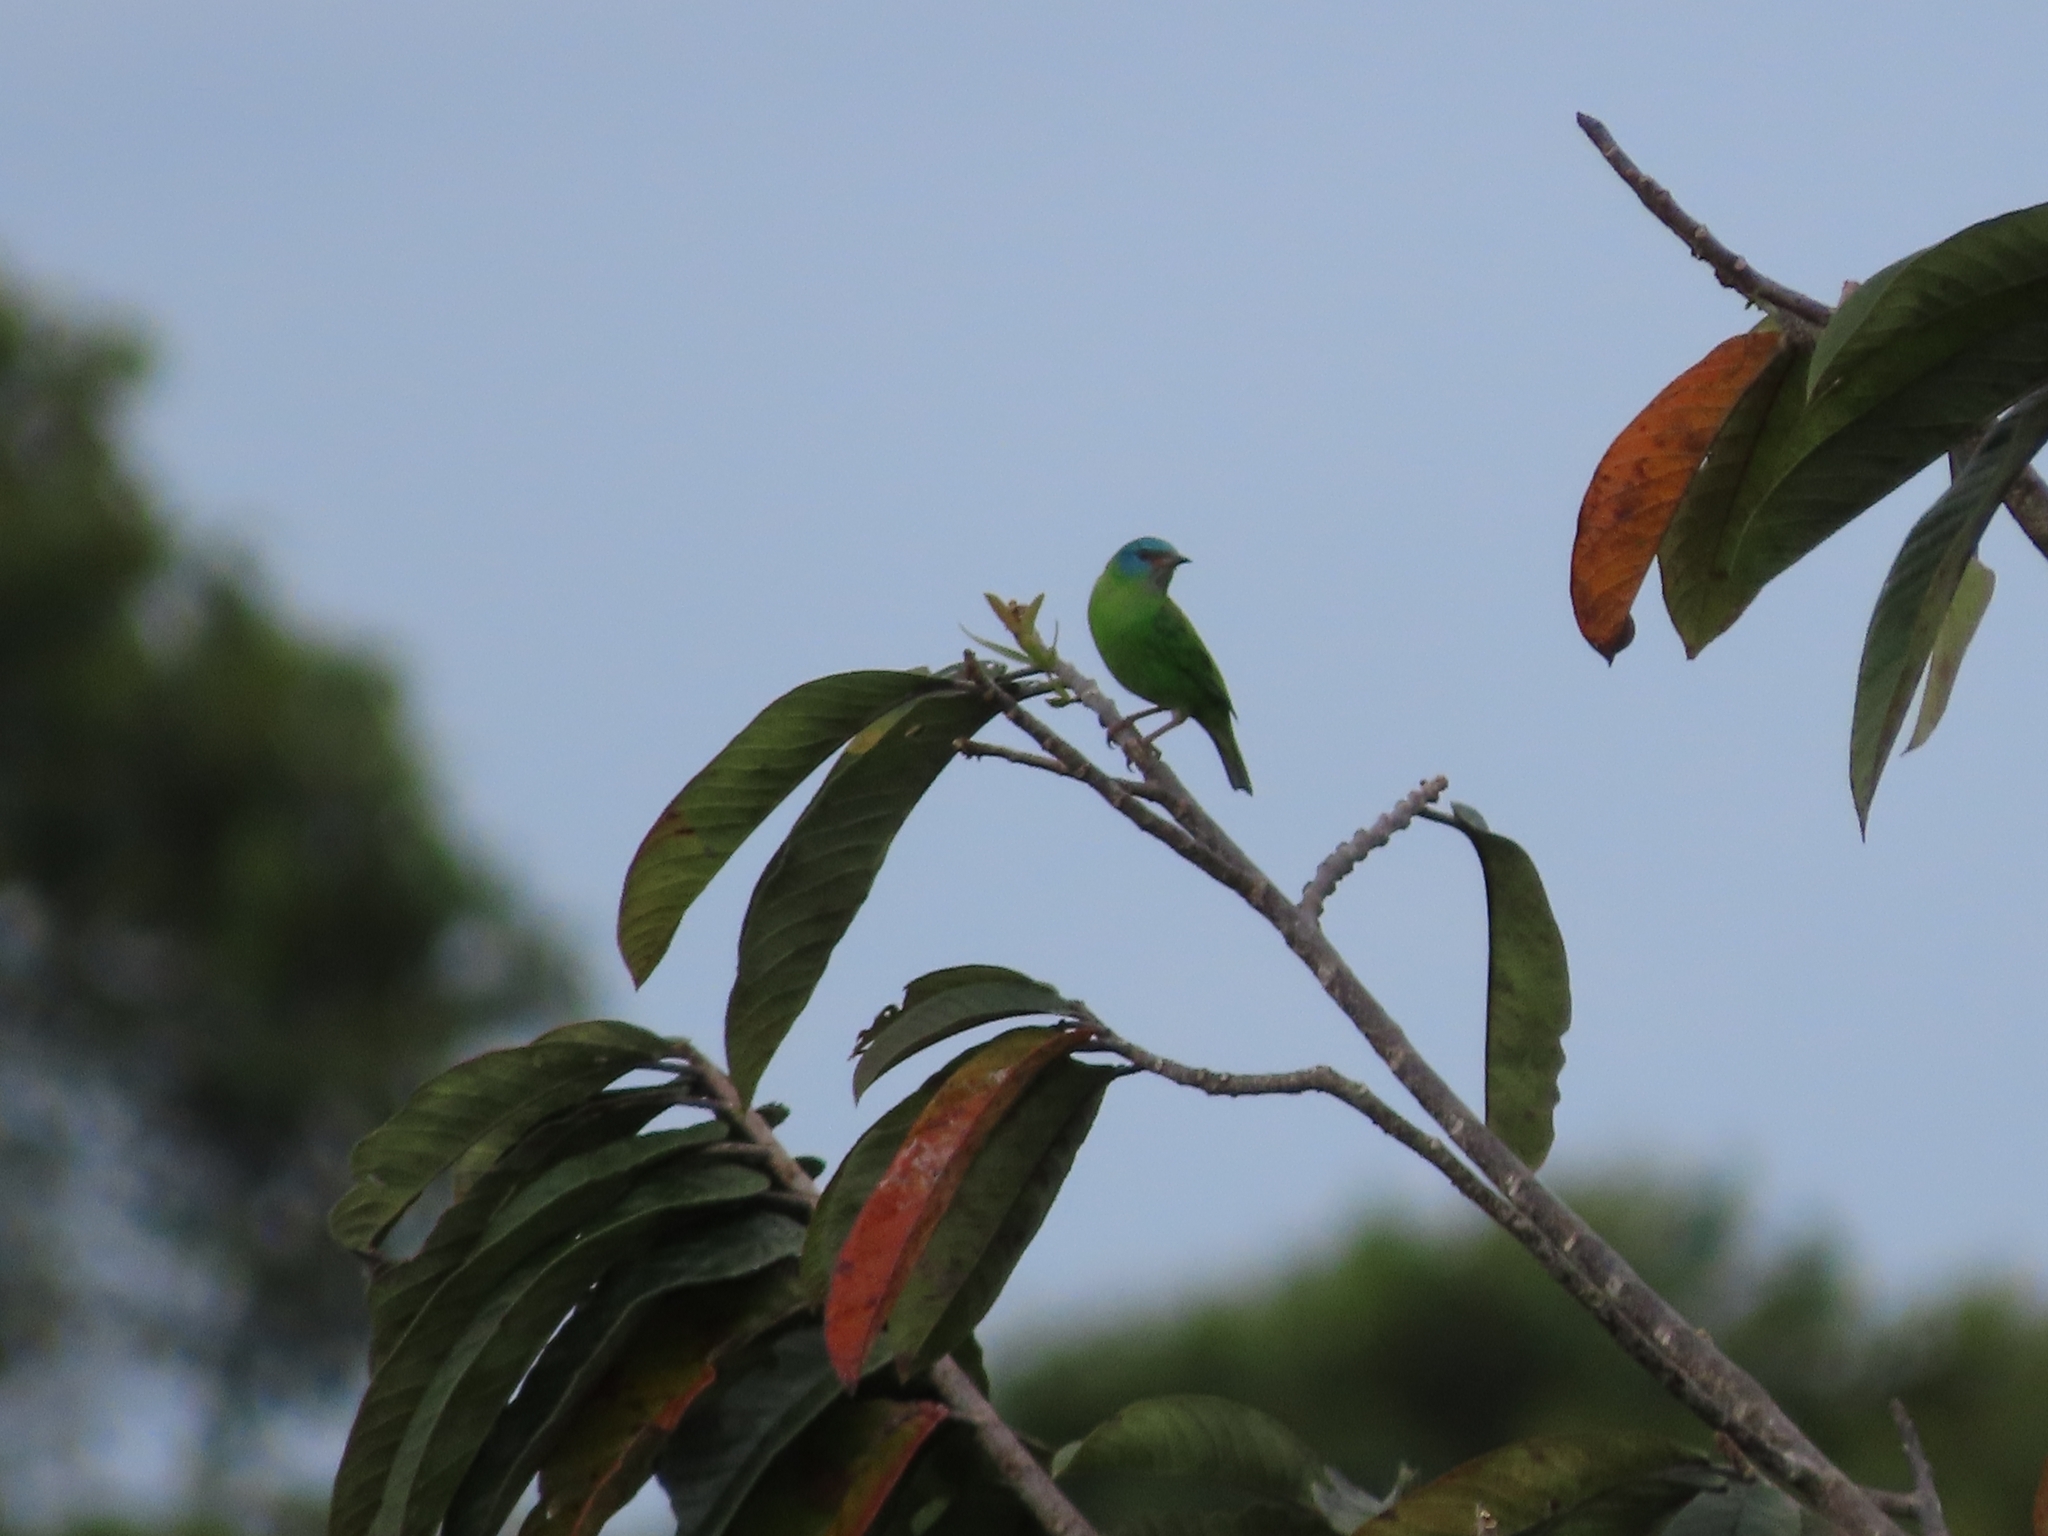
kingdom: Animalia
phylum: Chordata
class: Aves
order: Passeriformes
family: Thraupidae
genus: Dacnis
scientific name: Dacnis cayana
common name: Blue dacnis
